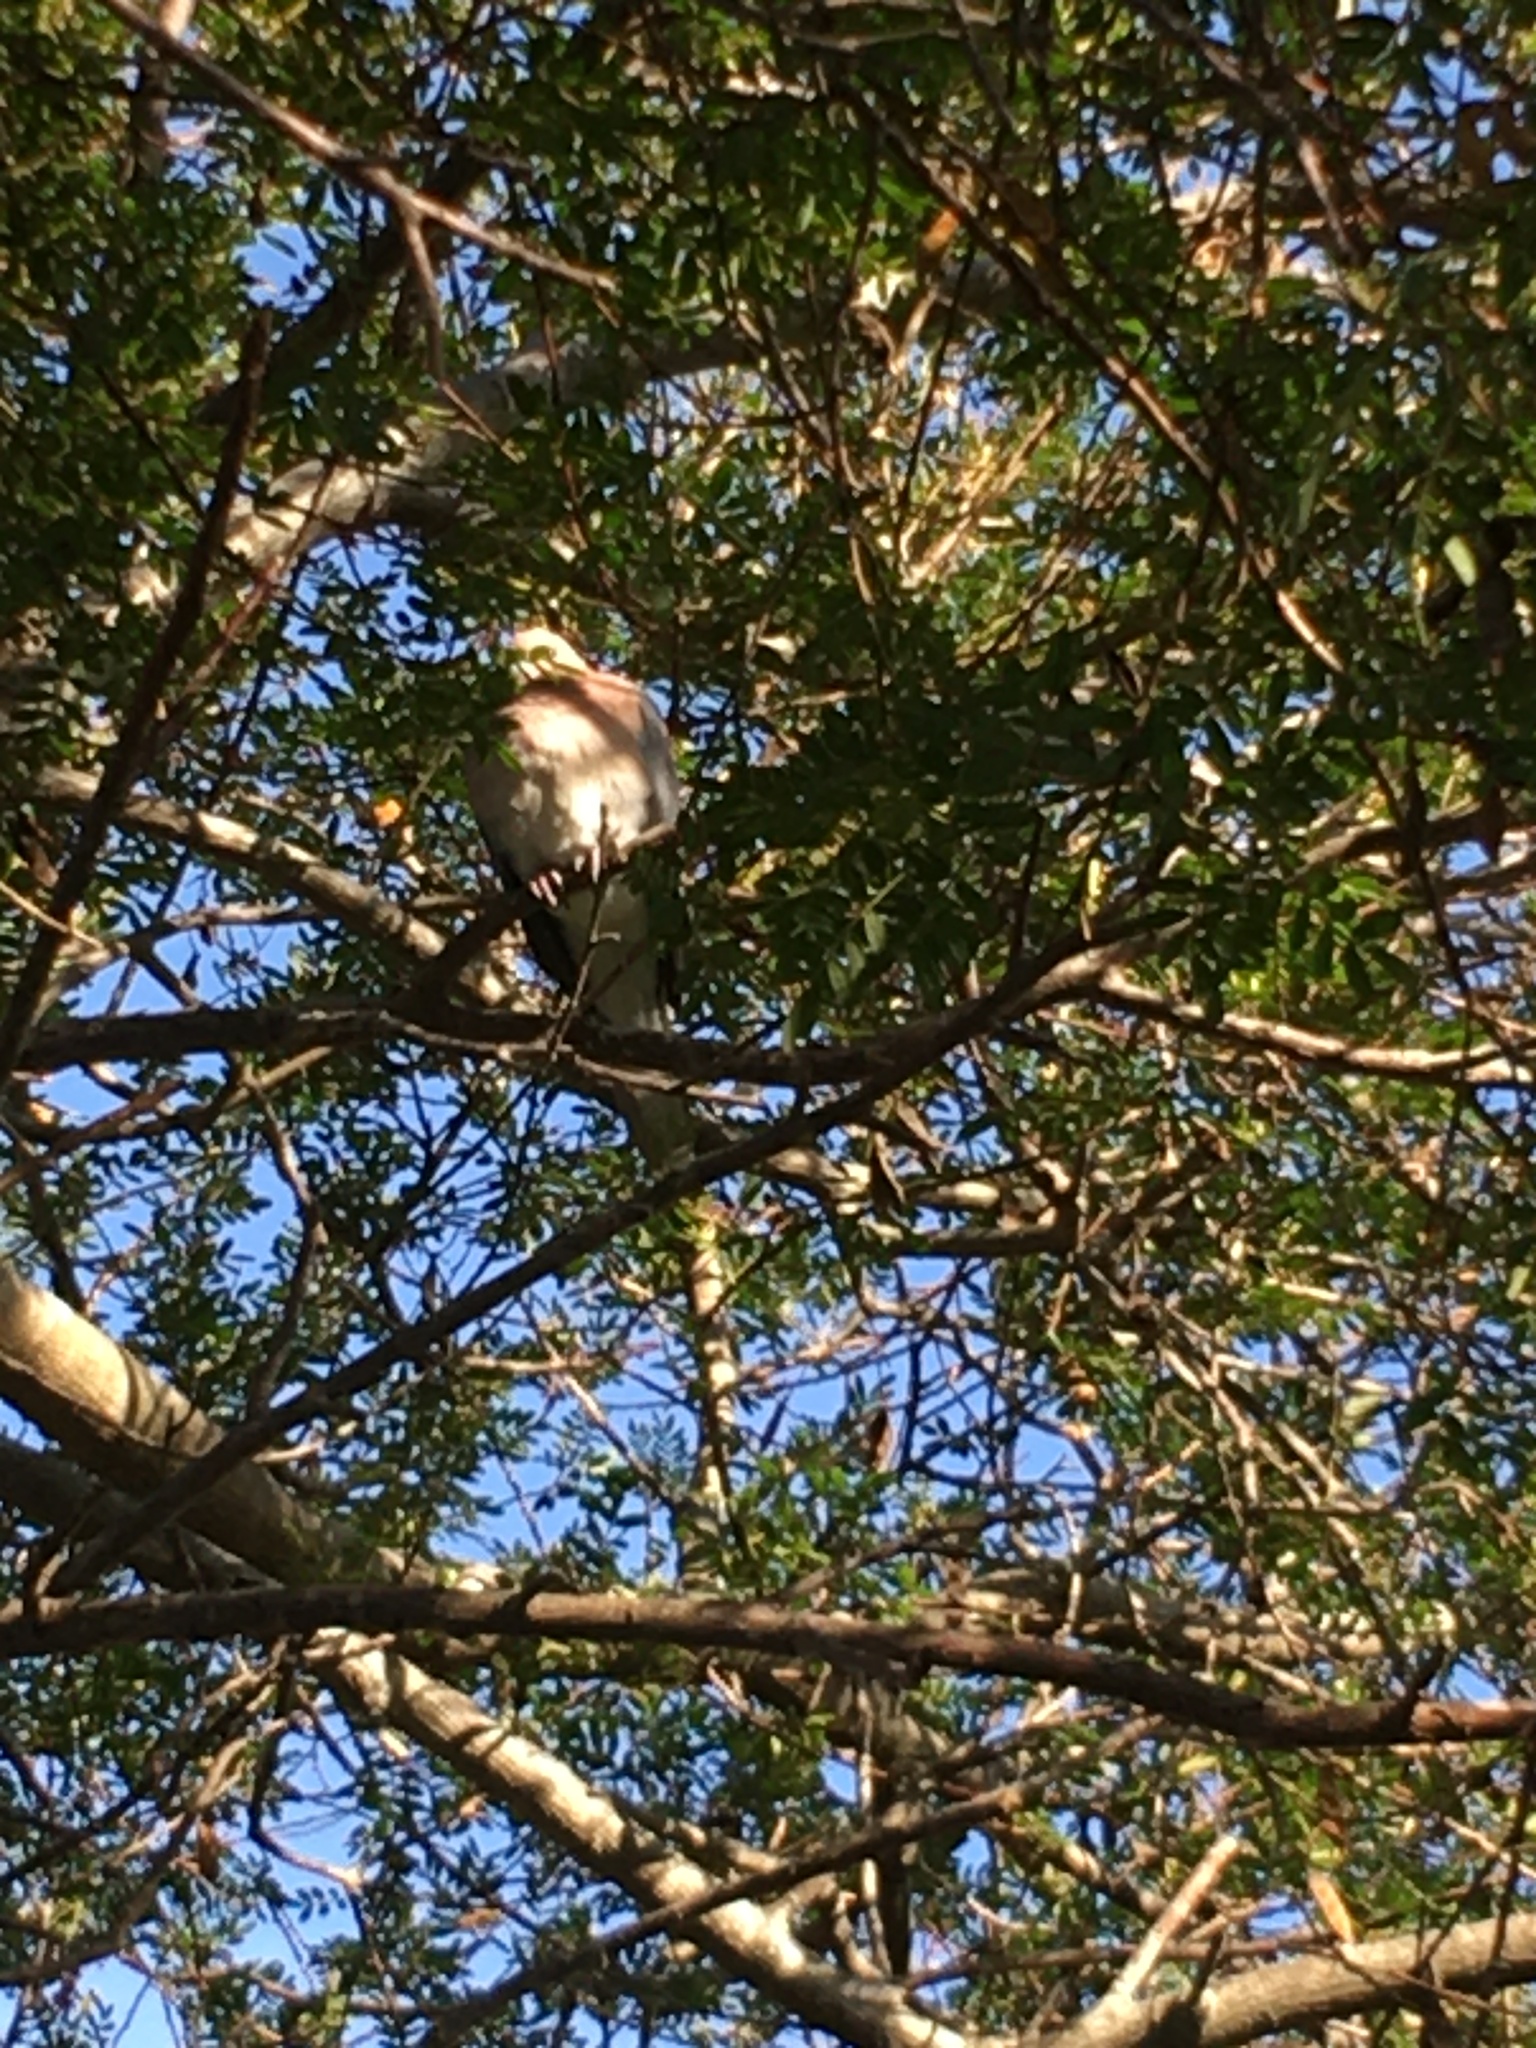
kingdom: Animalia
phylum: Chordata
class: Aves
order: Columbiformes
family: Columbidae
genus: Spilopelia
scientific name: Spilopelia senegalensis
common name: Laughing dove
